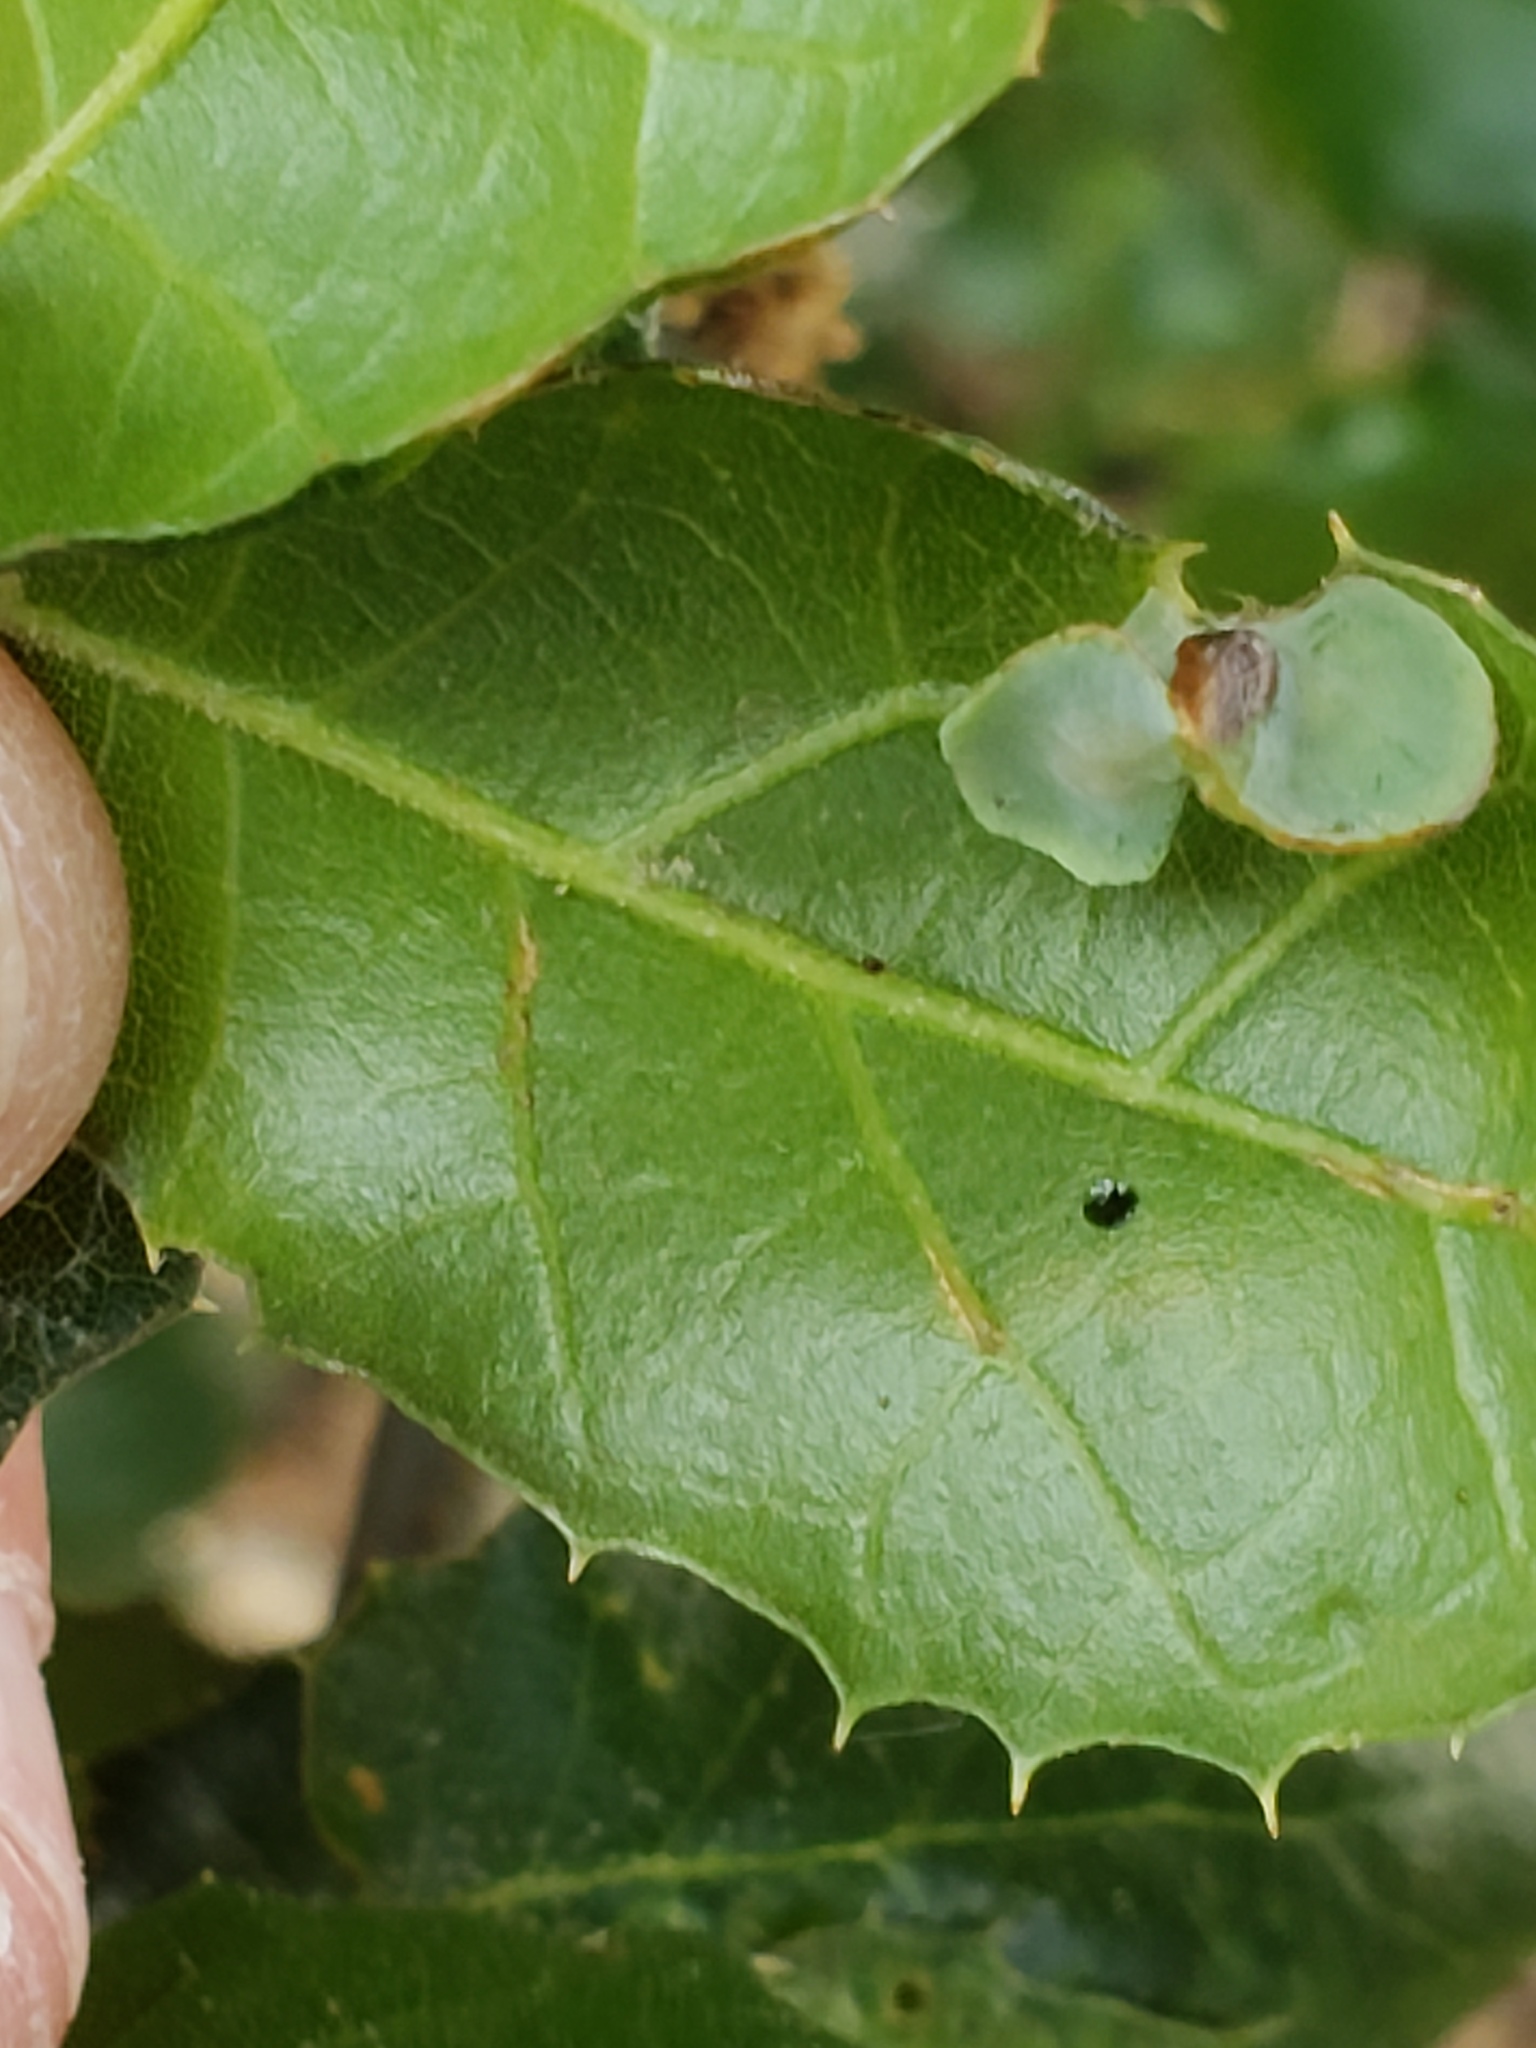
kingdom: Animalia
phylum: Arthropoda
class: Insecta
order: Hymenoptera
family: Cynipidae
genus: Amphibolips
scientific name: Amphibolips quercuspomiformis
